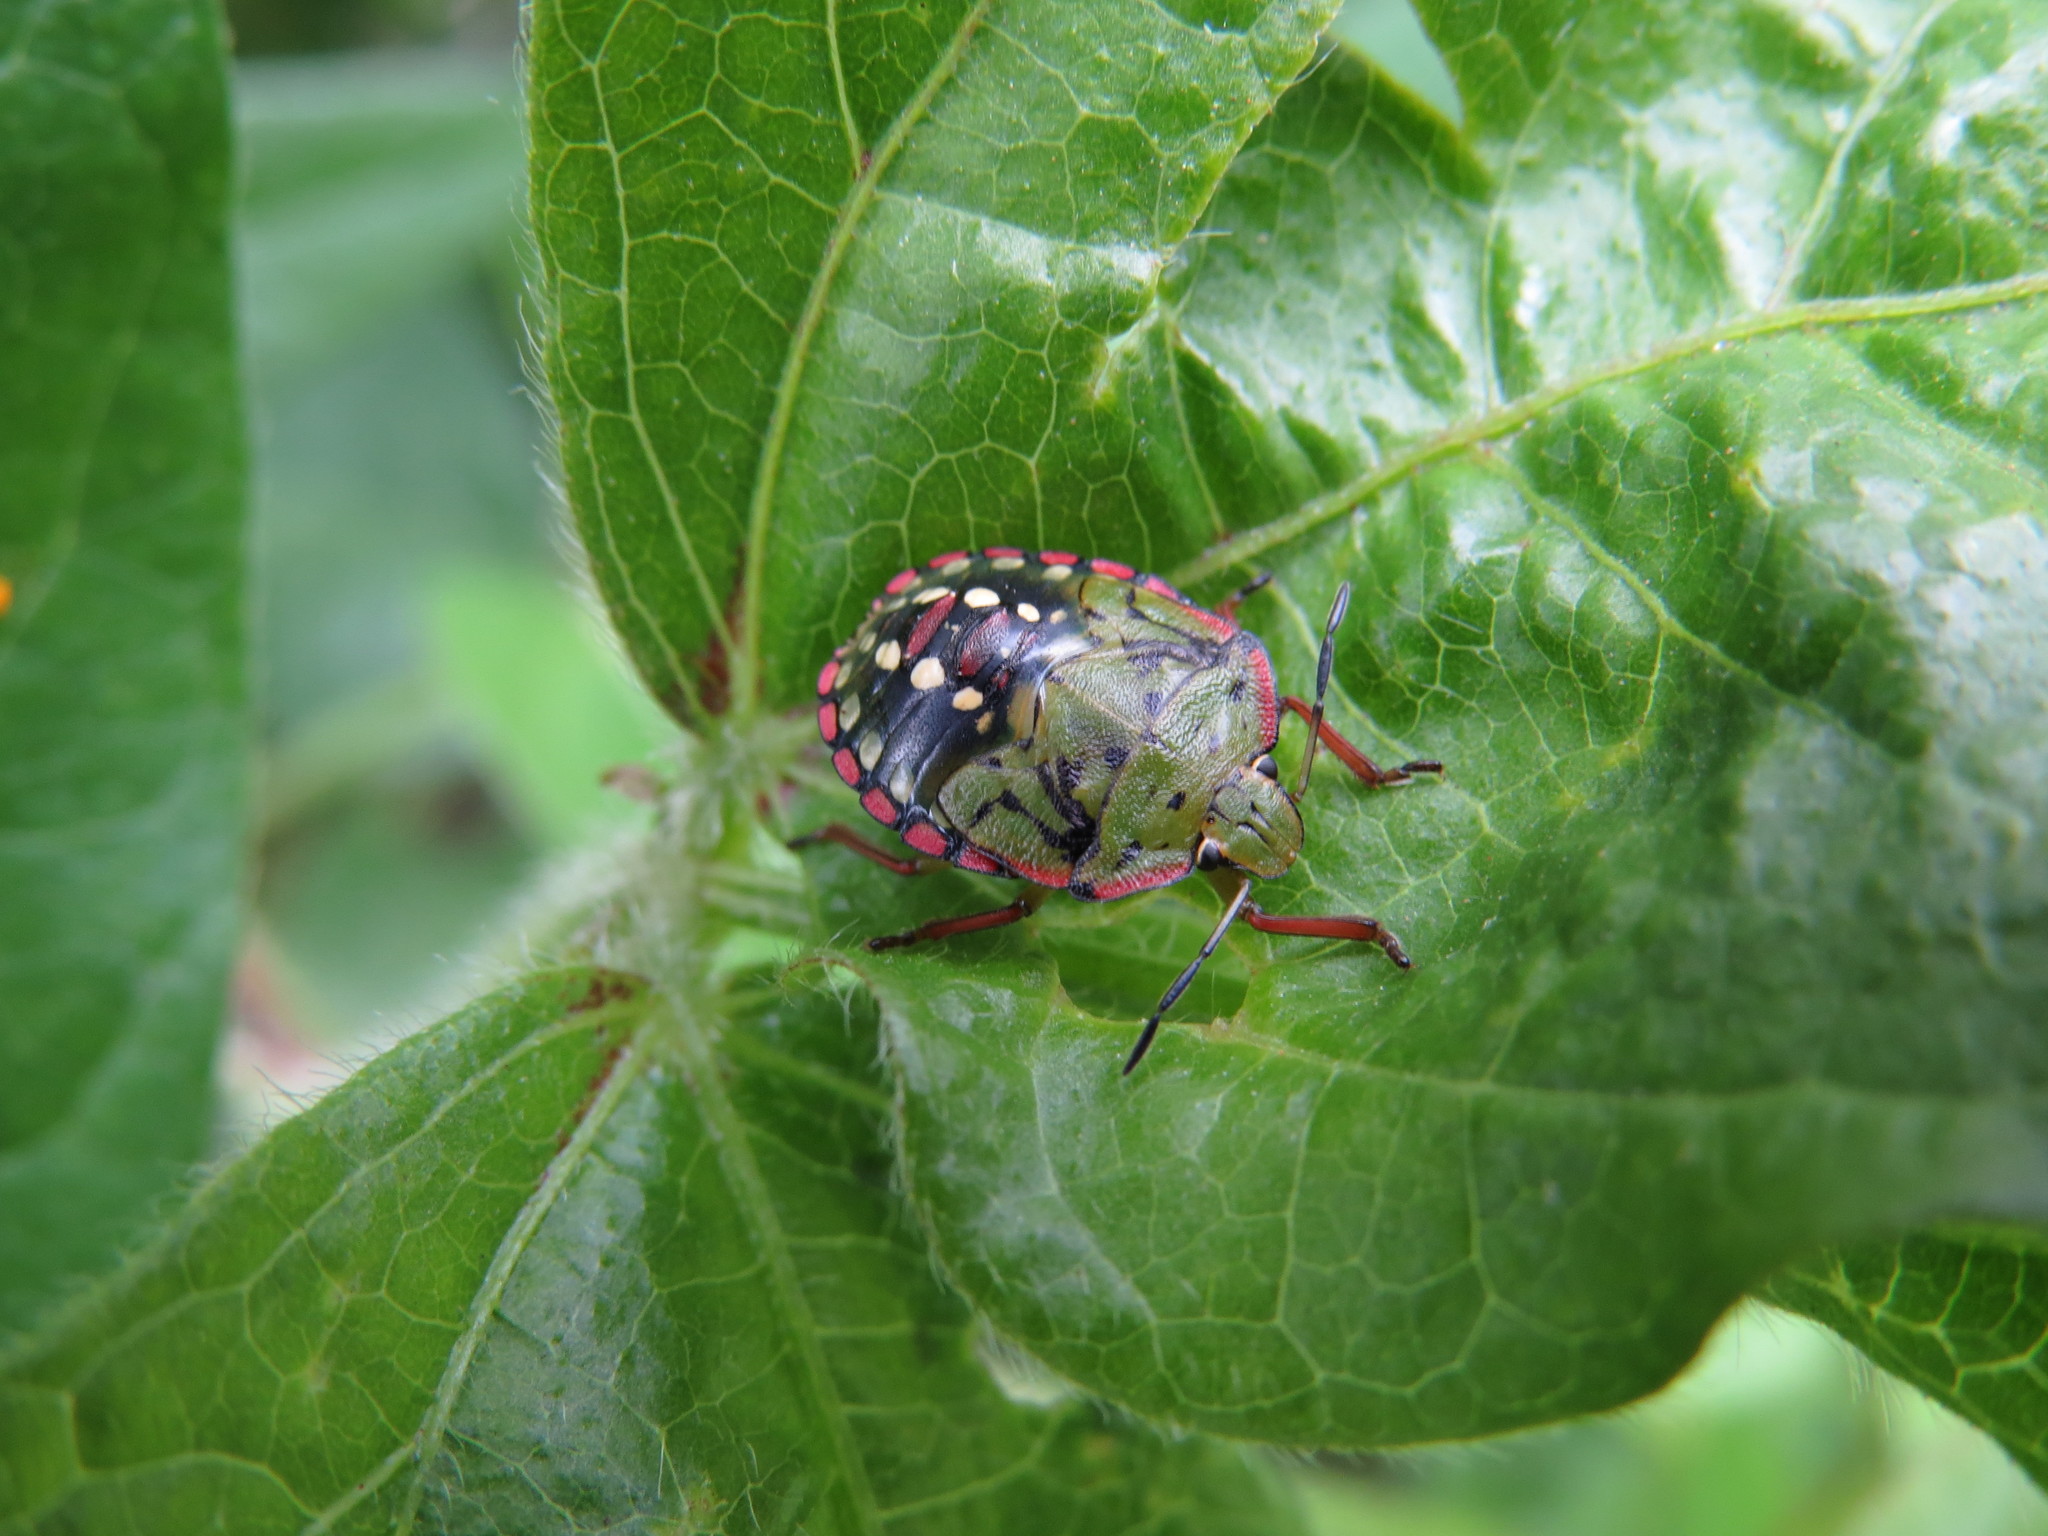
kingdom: Animalia
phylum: Arthropoda
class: Insecta
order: Hemiptera
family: Pentatomidae
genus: Nezara
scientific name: Nezara viridula
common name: Southern green stink bug
